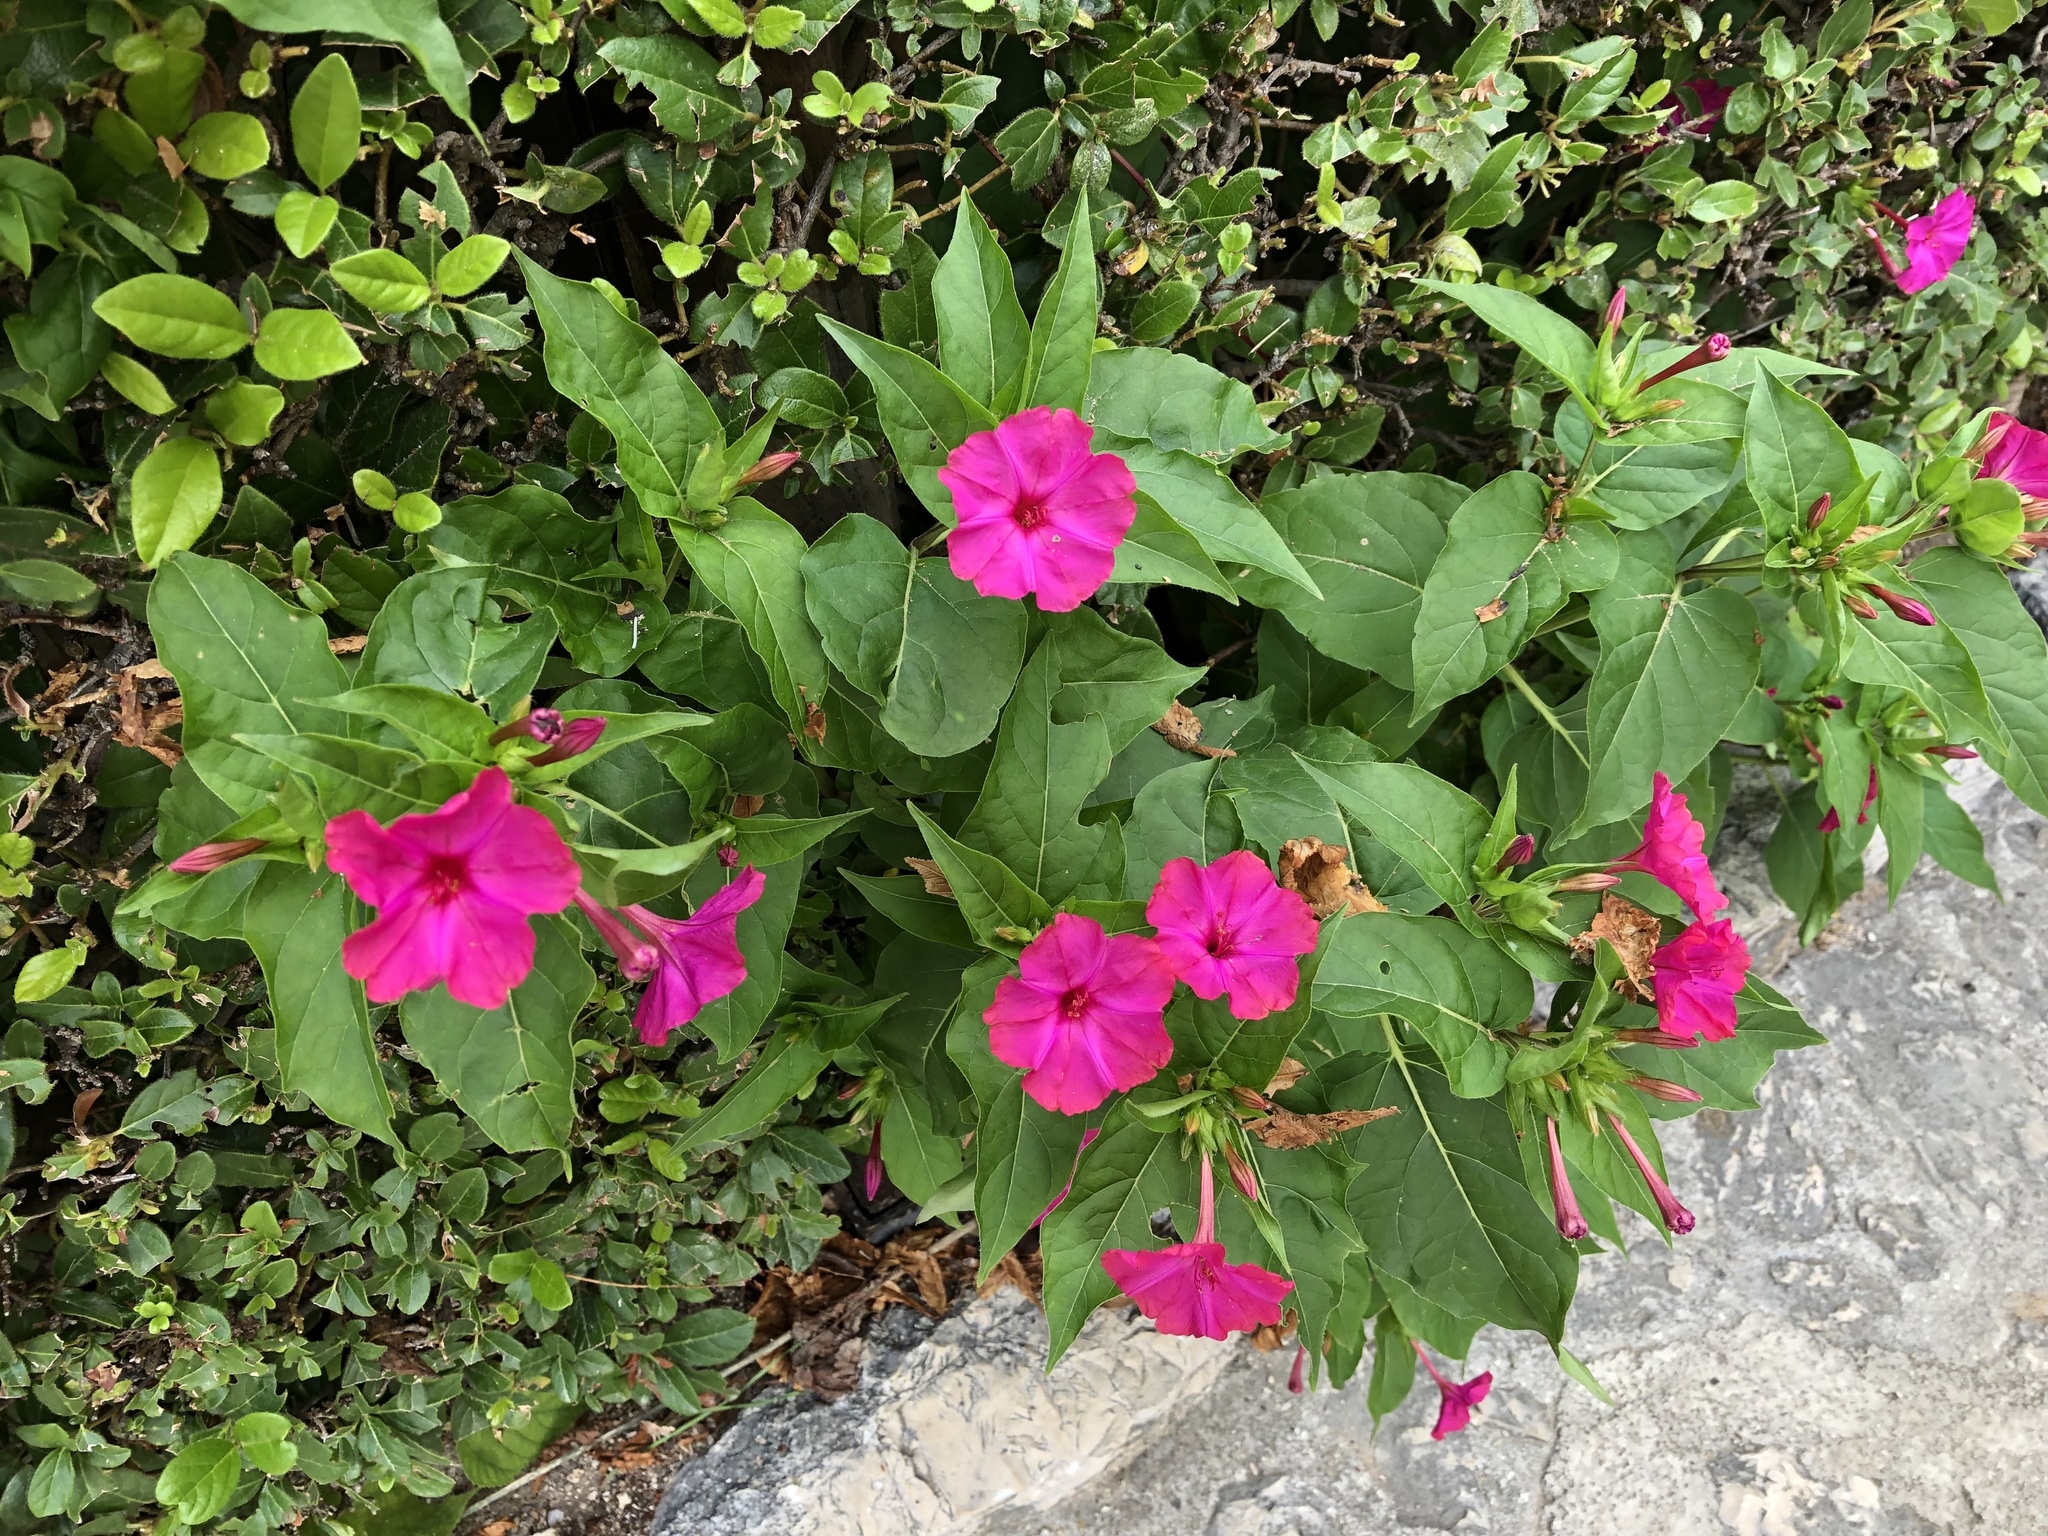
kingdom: Plantae
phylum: Tracheophyta
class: Magnoliopsida
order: Caryophyllales
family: Nyctaginaceae
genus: Mirabilis
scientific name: Mirabilis jalapa
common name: Marvel-of-peru
